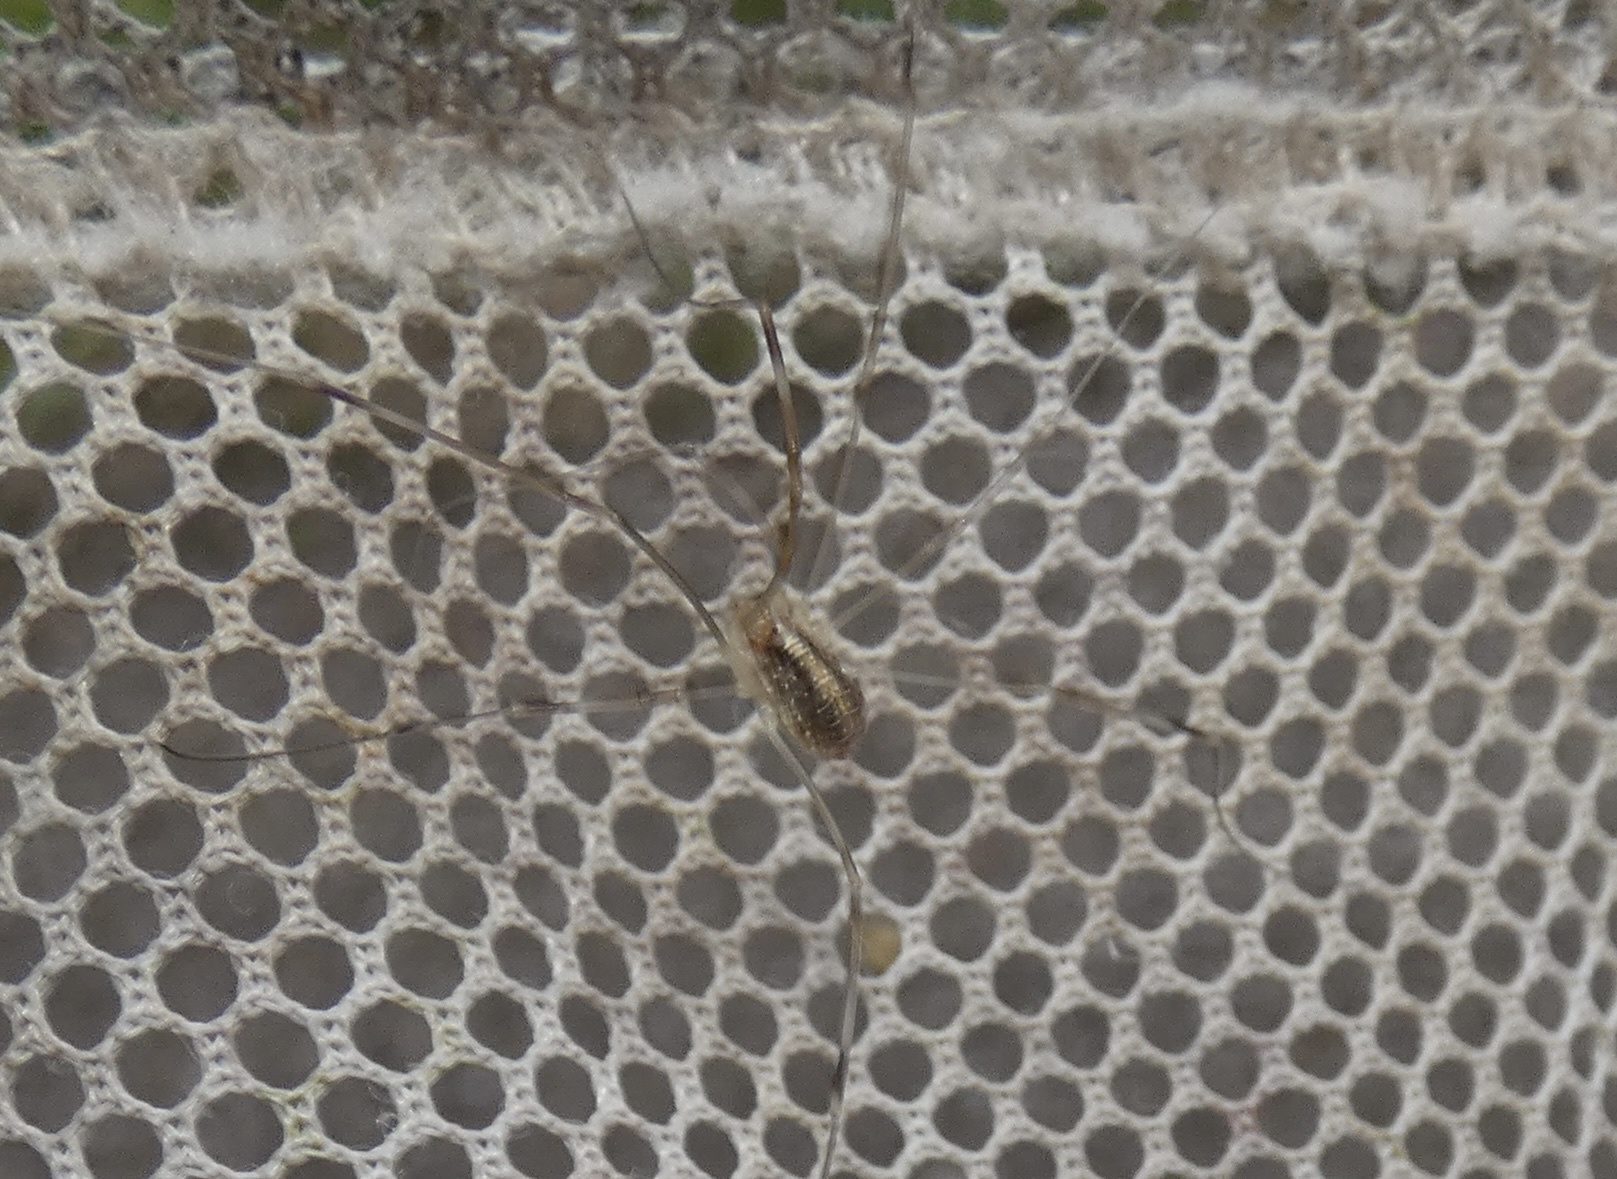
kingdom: Animalia
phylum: Arthropoda
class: Arachnida
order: Opiliones
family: Phalangiidae
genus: Opilio
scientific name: Opilio canestrinii
